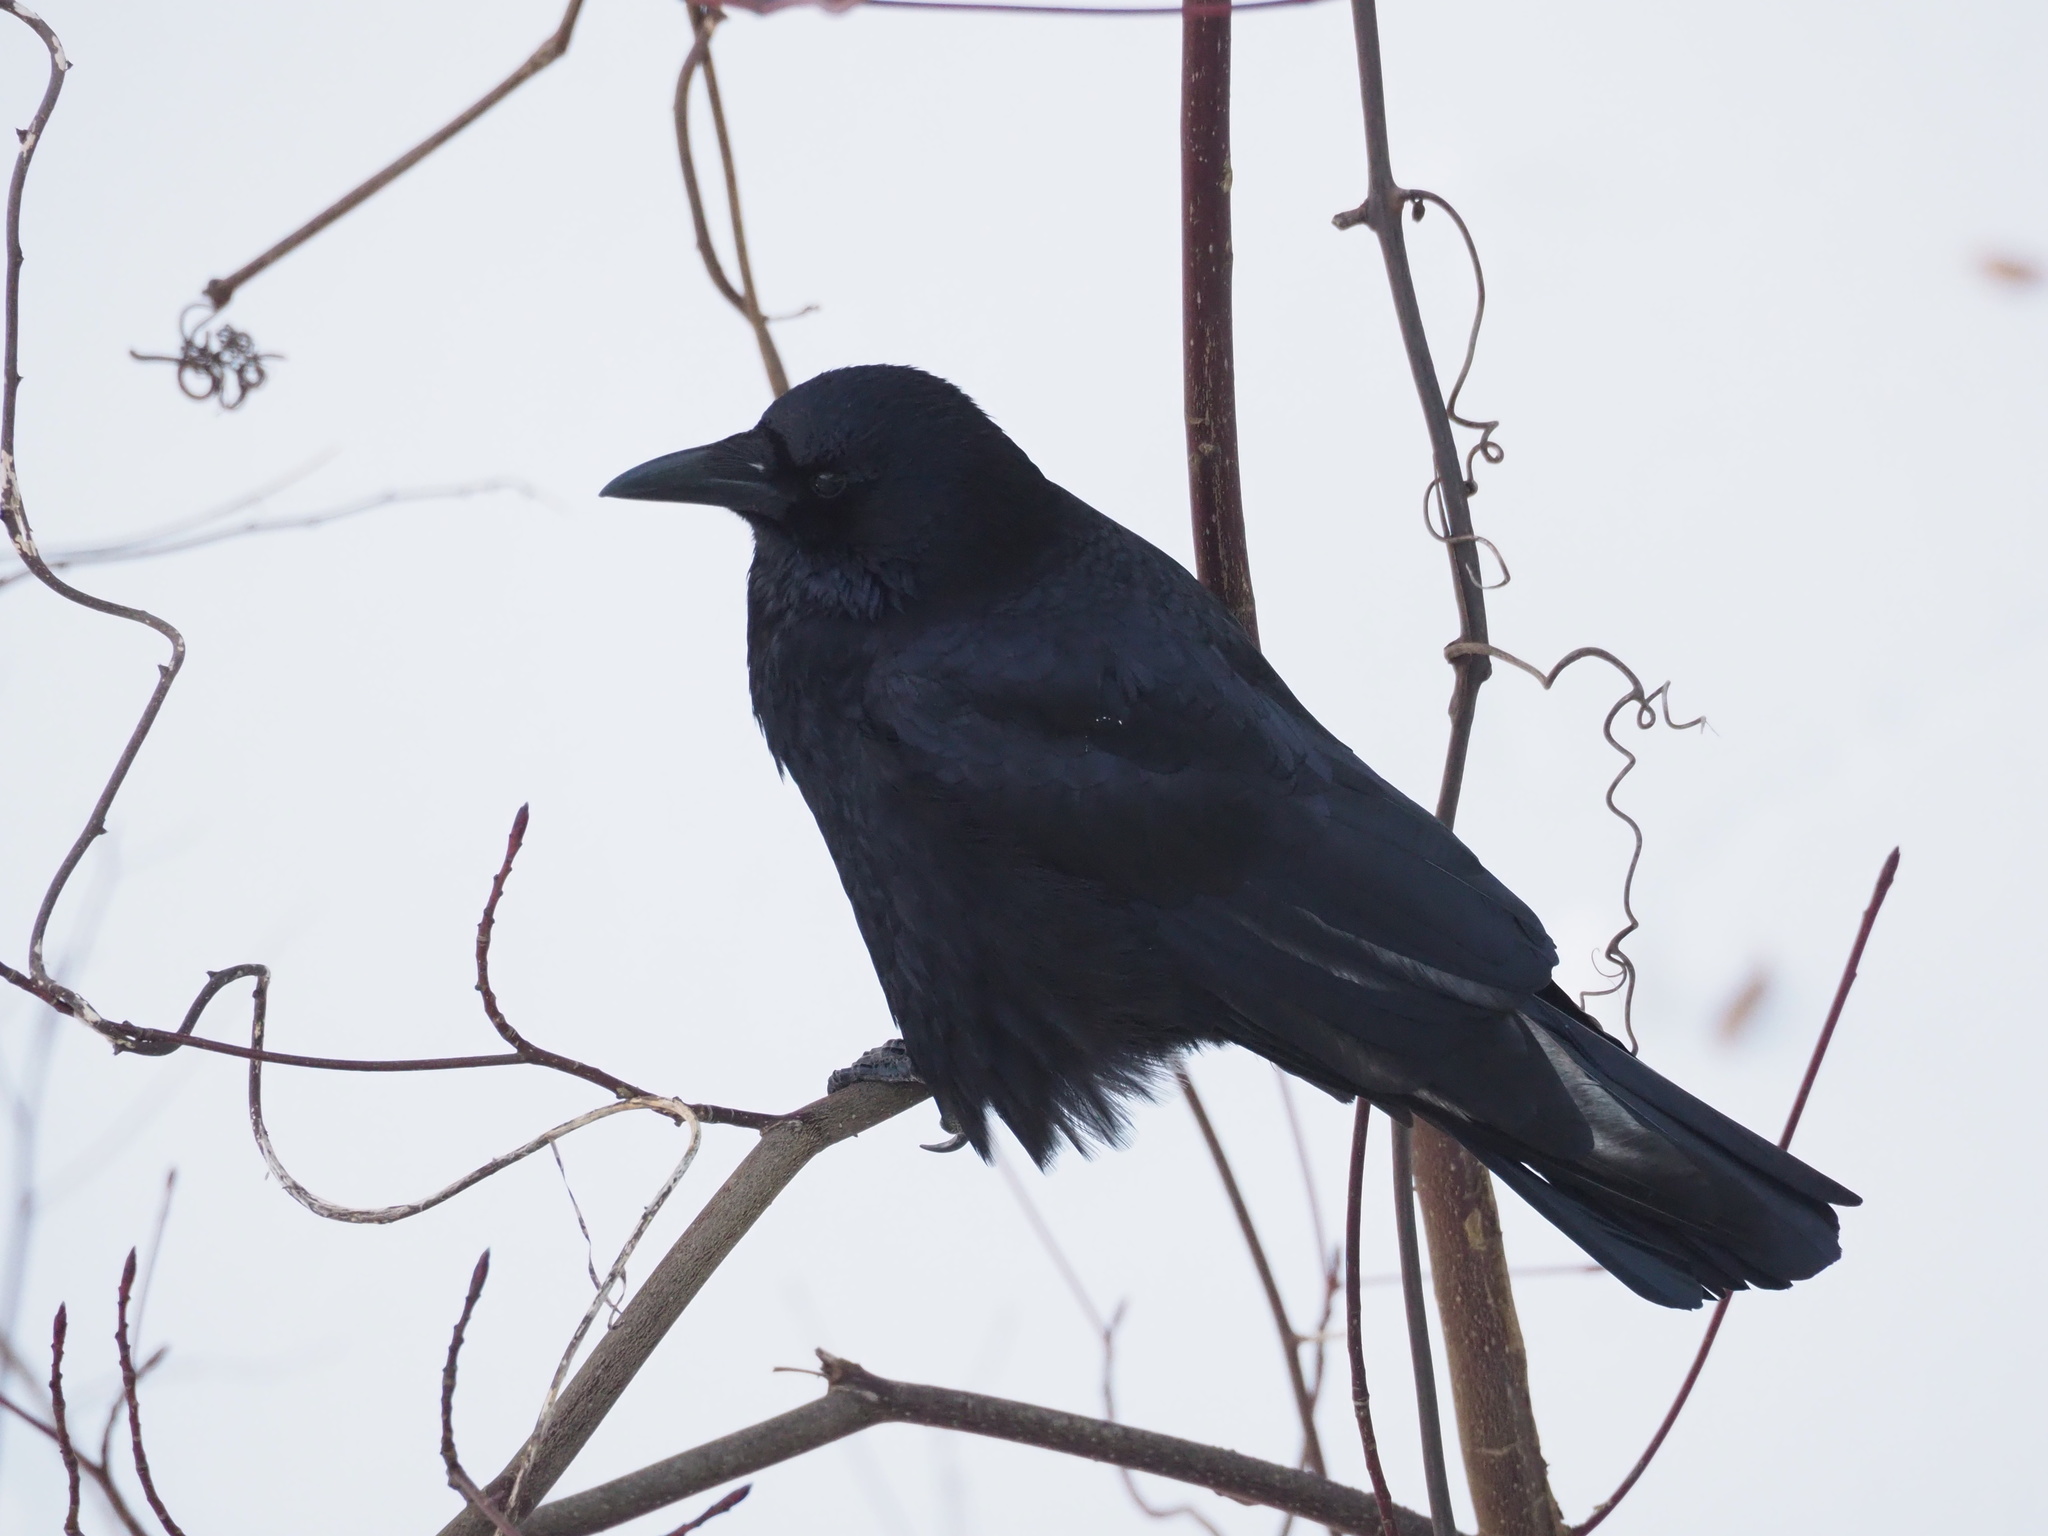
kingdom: Animalia
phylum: Chordata
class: Aves
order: Passeriformes
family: Corvidae
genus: Corvus
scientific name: Corvus corone
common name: Carrion crow
